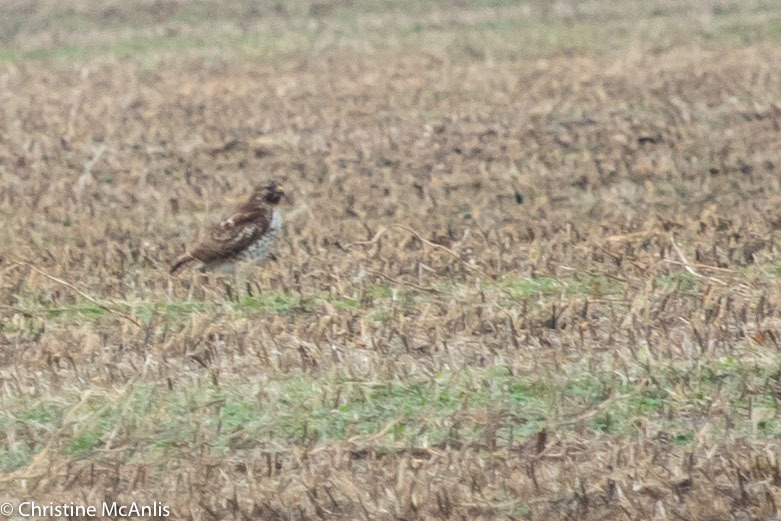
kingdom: Animalia
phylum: Chordata
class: Aves
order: Accipitriformes
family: Accipitridae
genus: Buteo
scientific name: Buteo jamaicensis
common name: Red-tailed hawk
